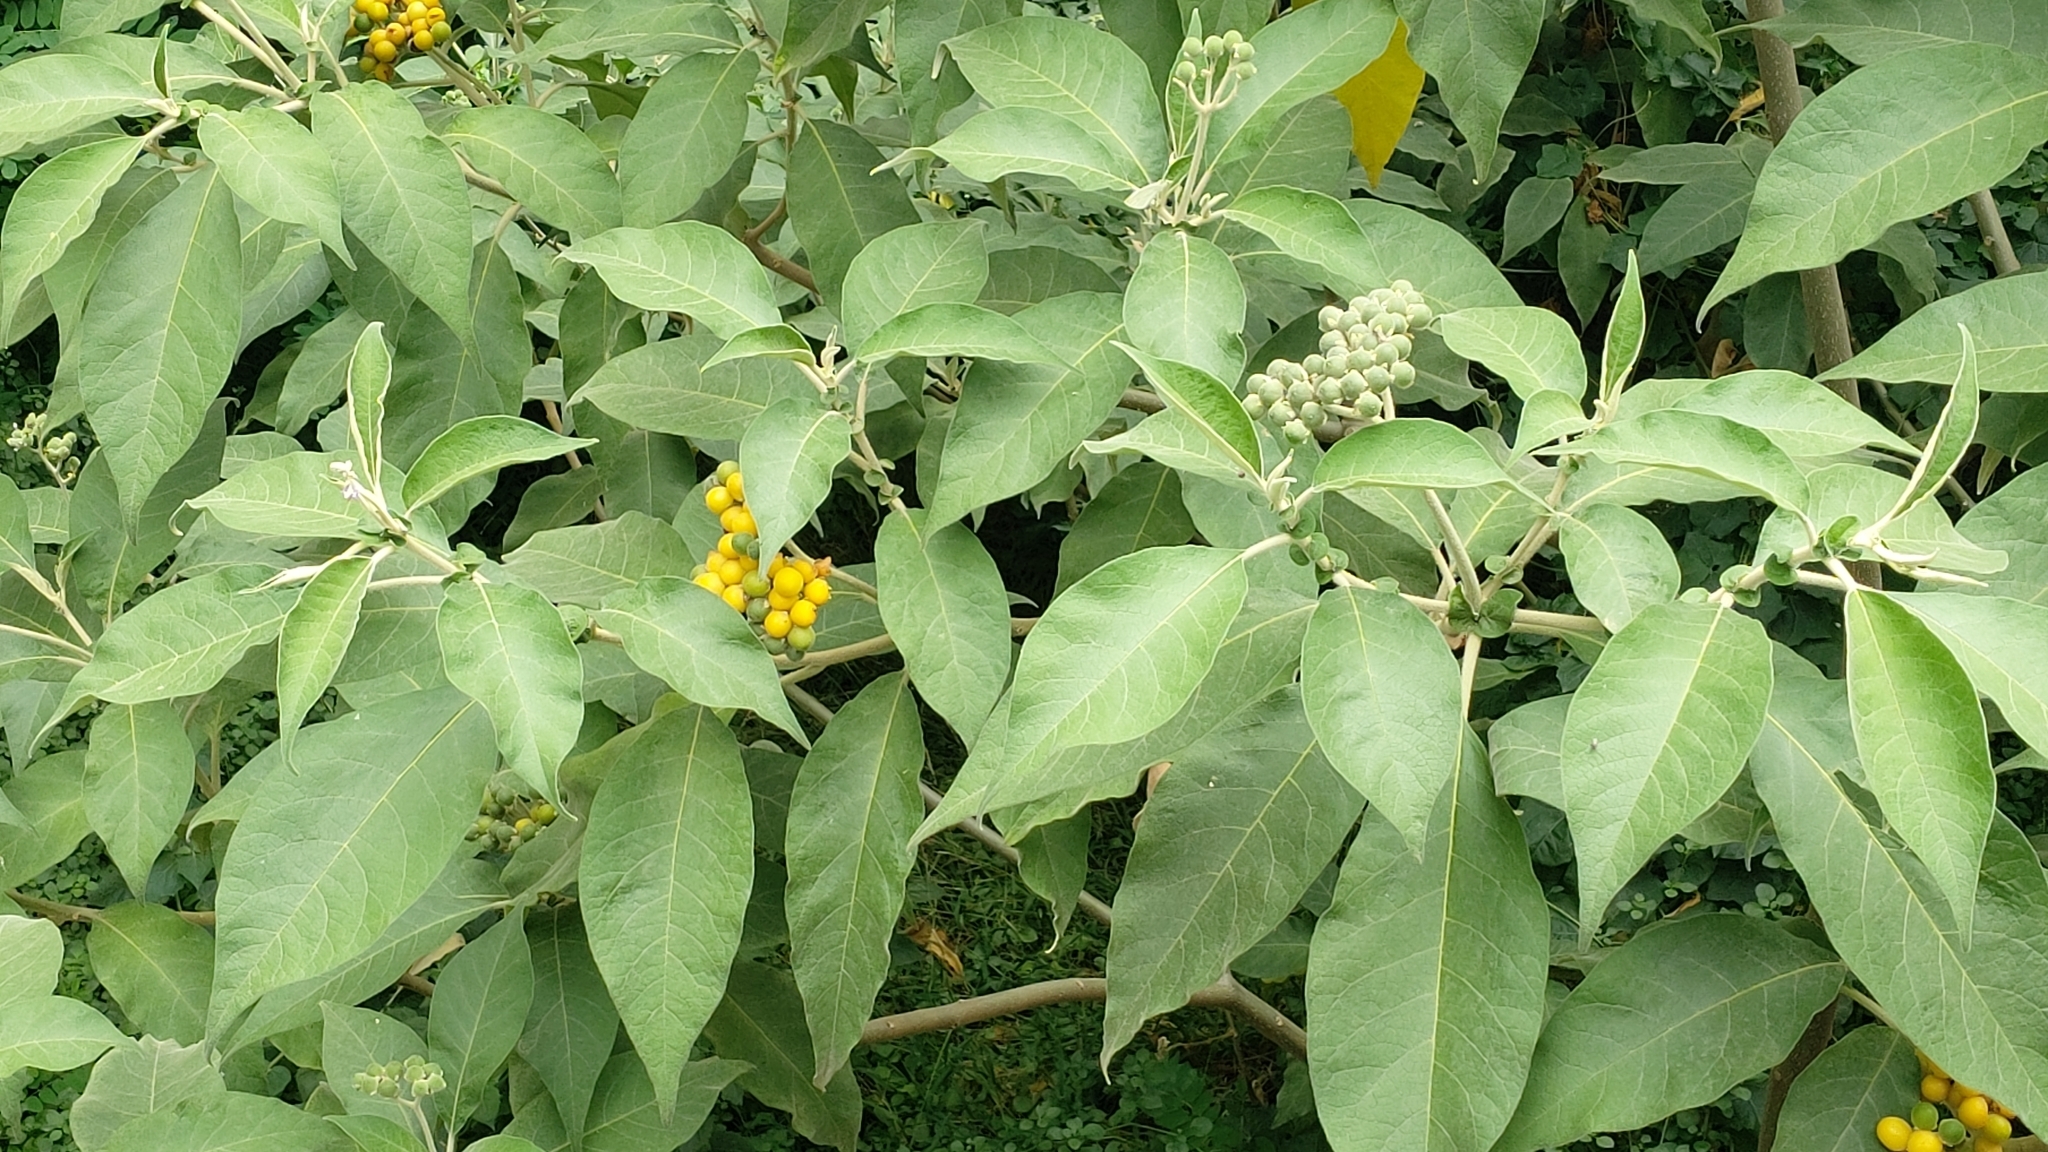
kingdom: Plantae
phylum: Tracheophyta
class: Magnoliopsida
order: Solanales
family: Solanaceae
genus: Solanum
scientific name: Solanum mauritianum
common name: Earleaf nightshade
